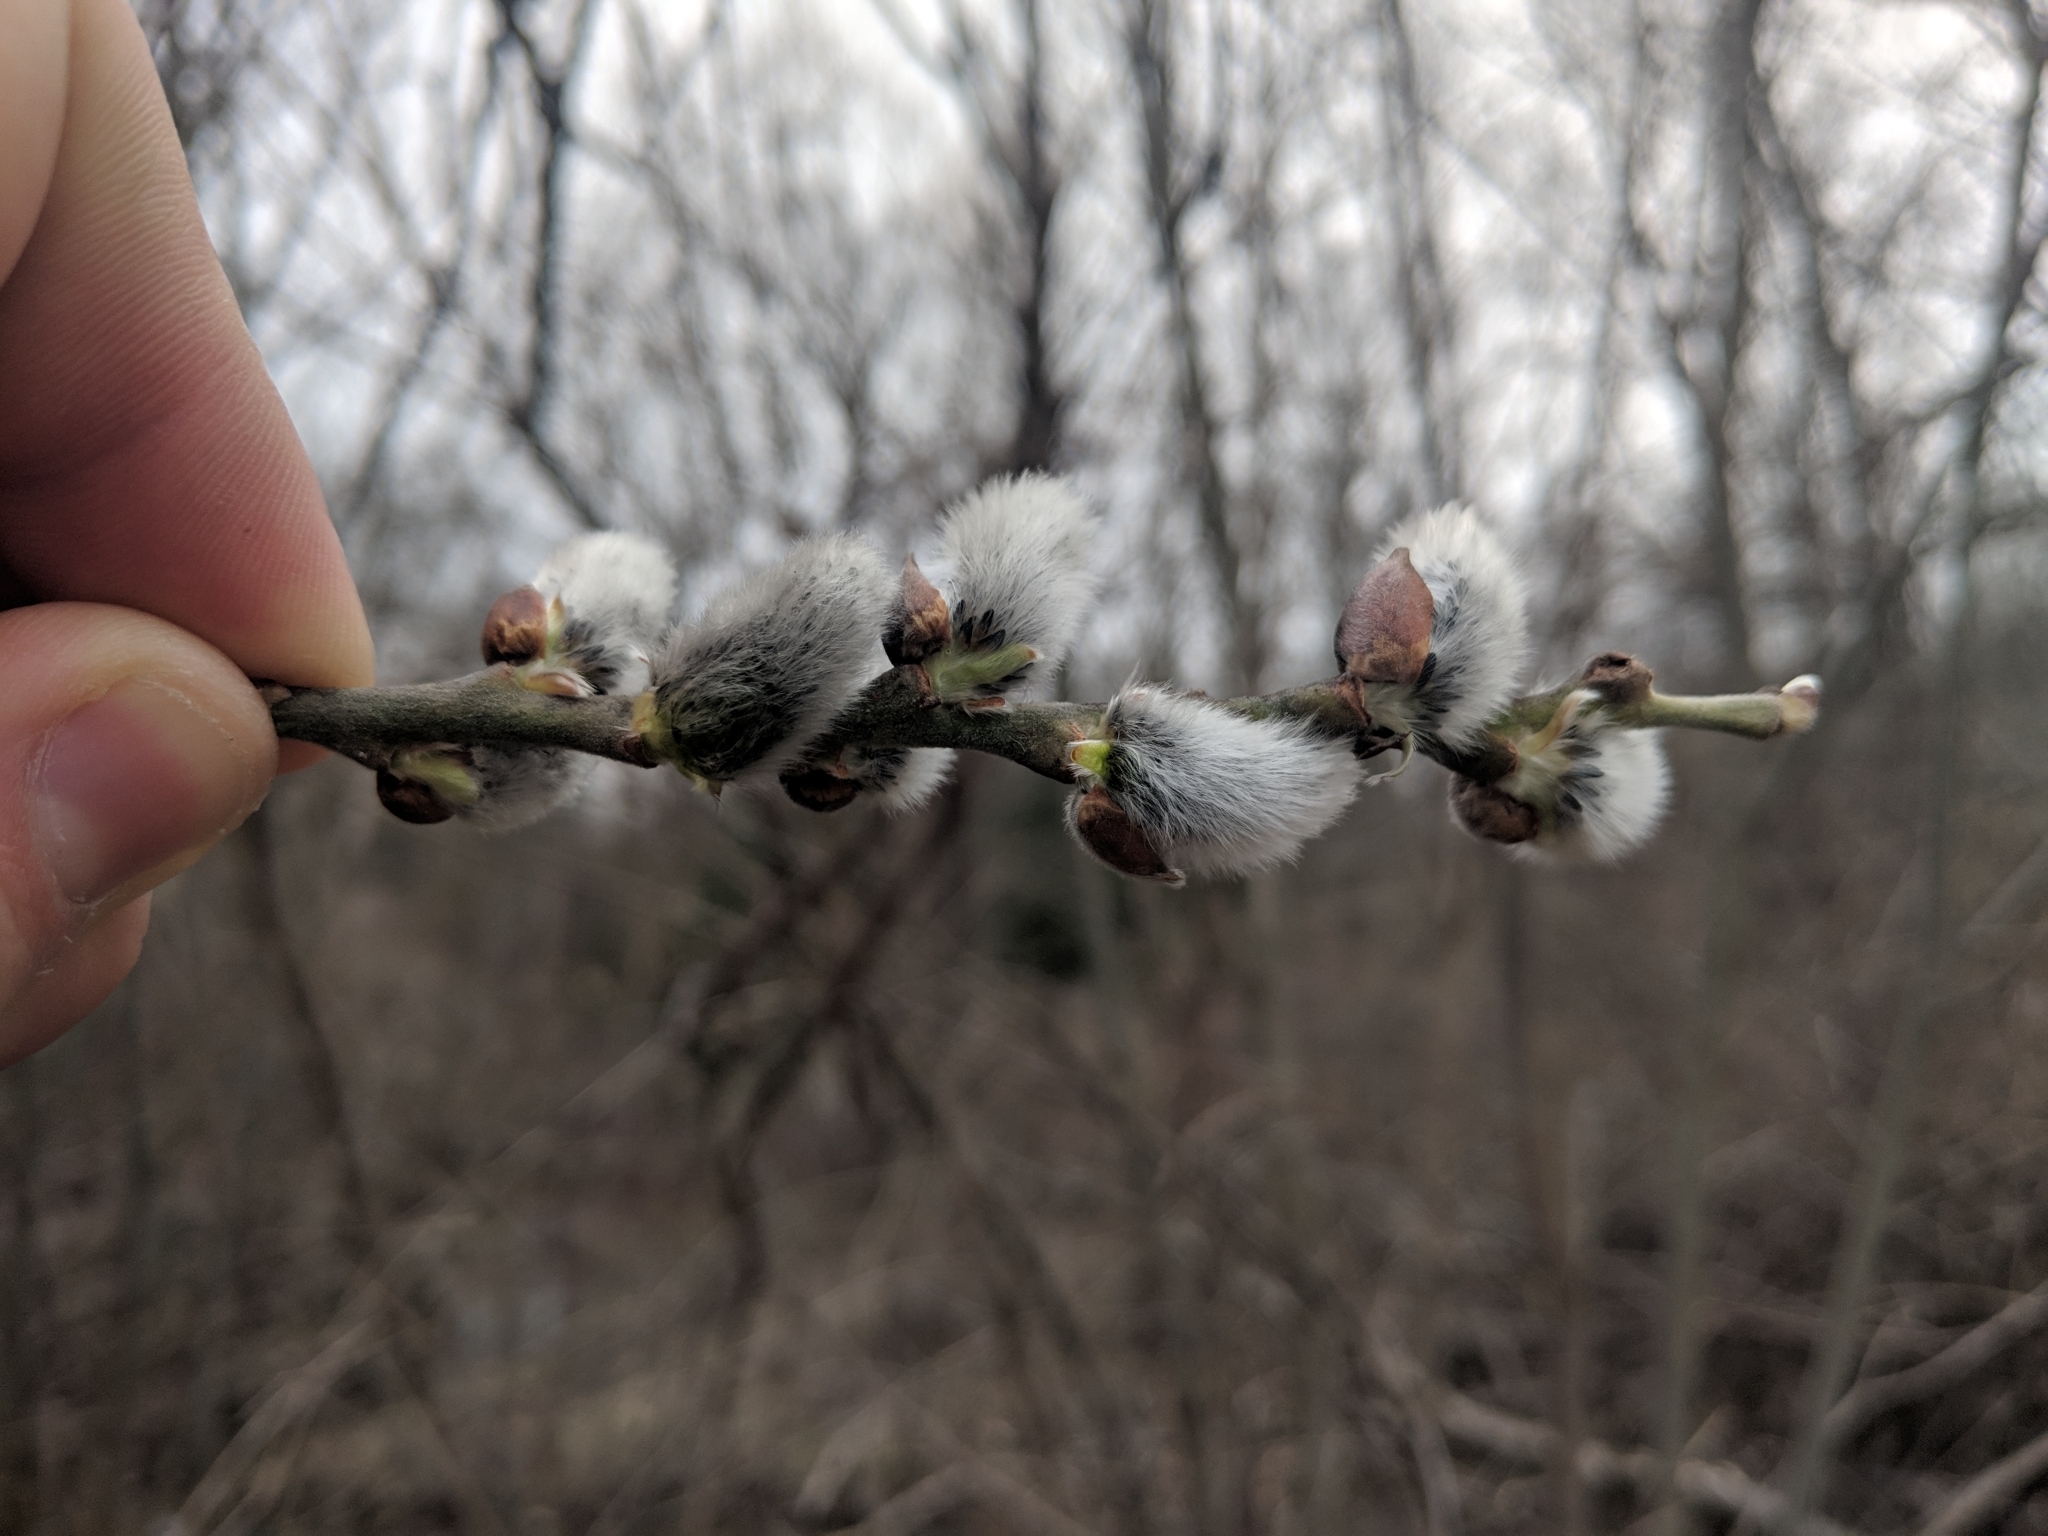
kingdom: Plantae
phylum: Tracheophyta
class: Magnoliopsida
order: Malpighiales
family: Salicaceae
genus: Salix
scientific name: Salix discolor
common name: Glaucous willow
